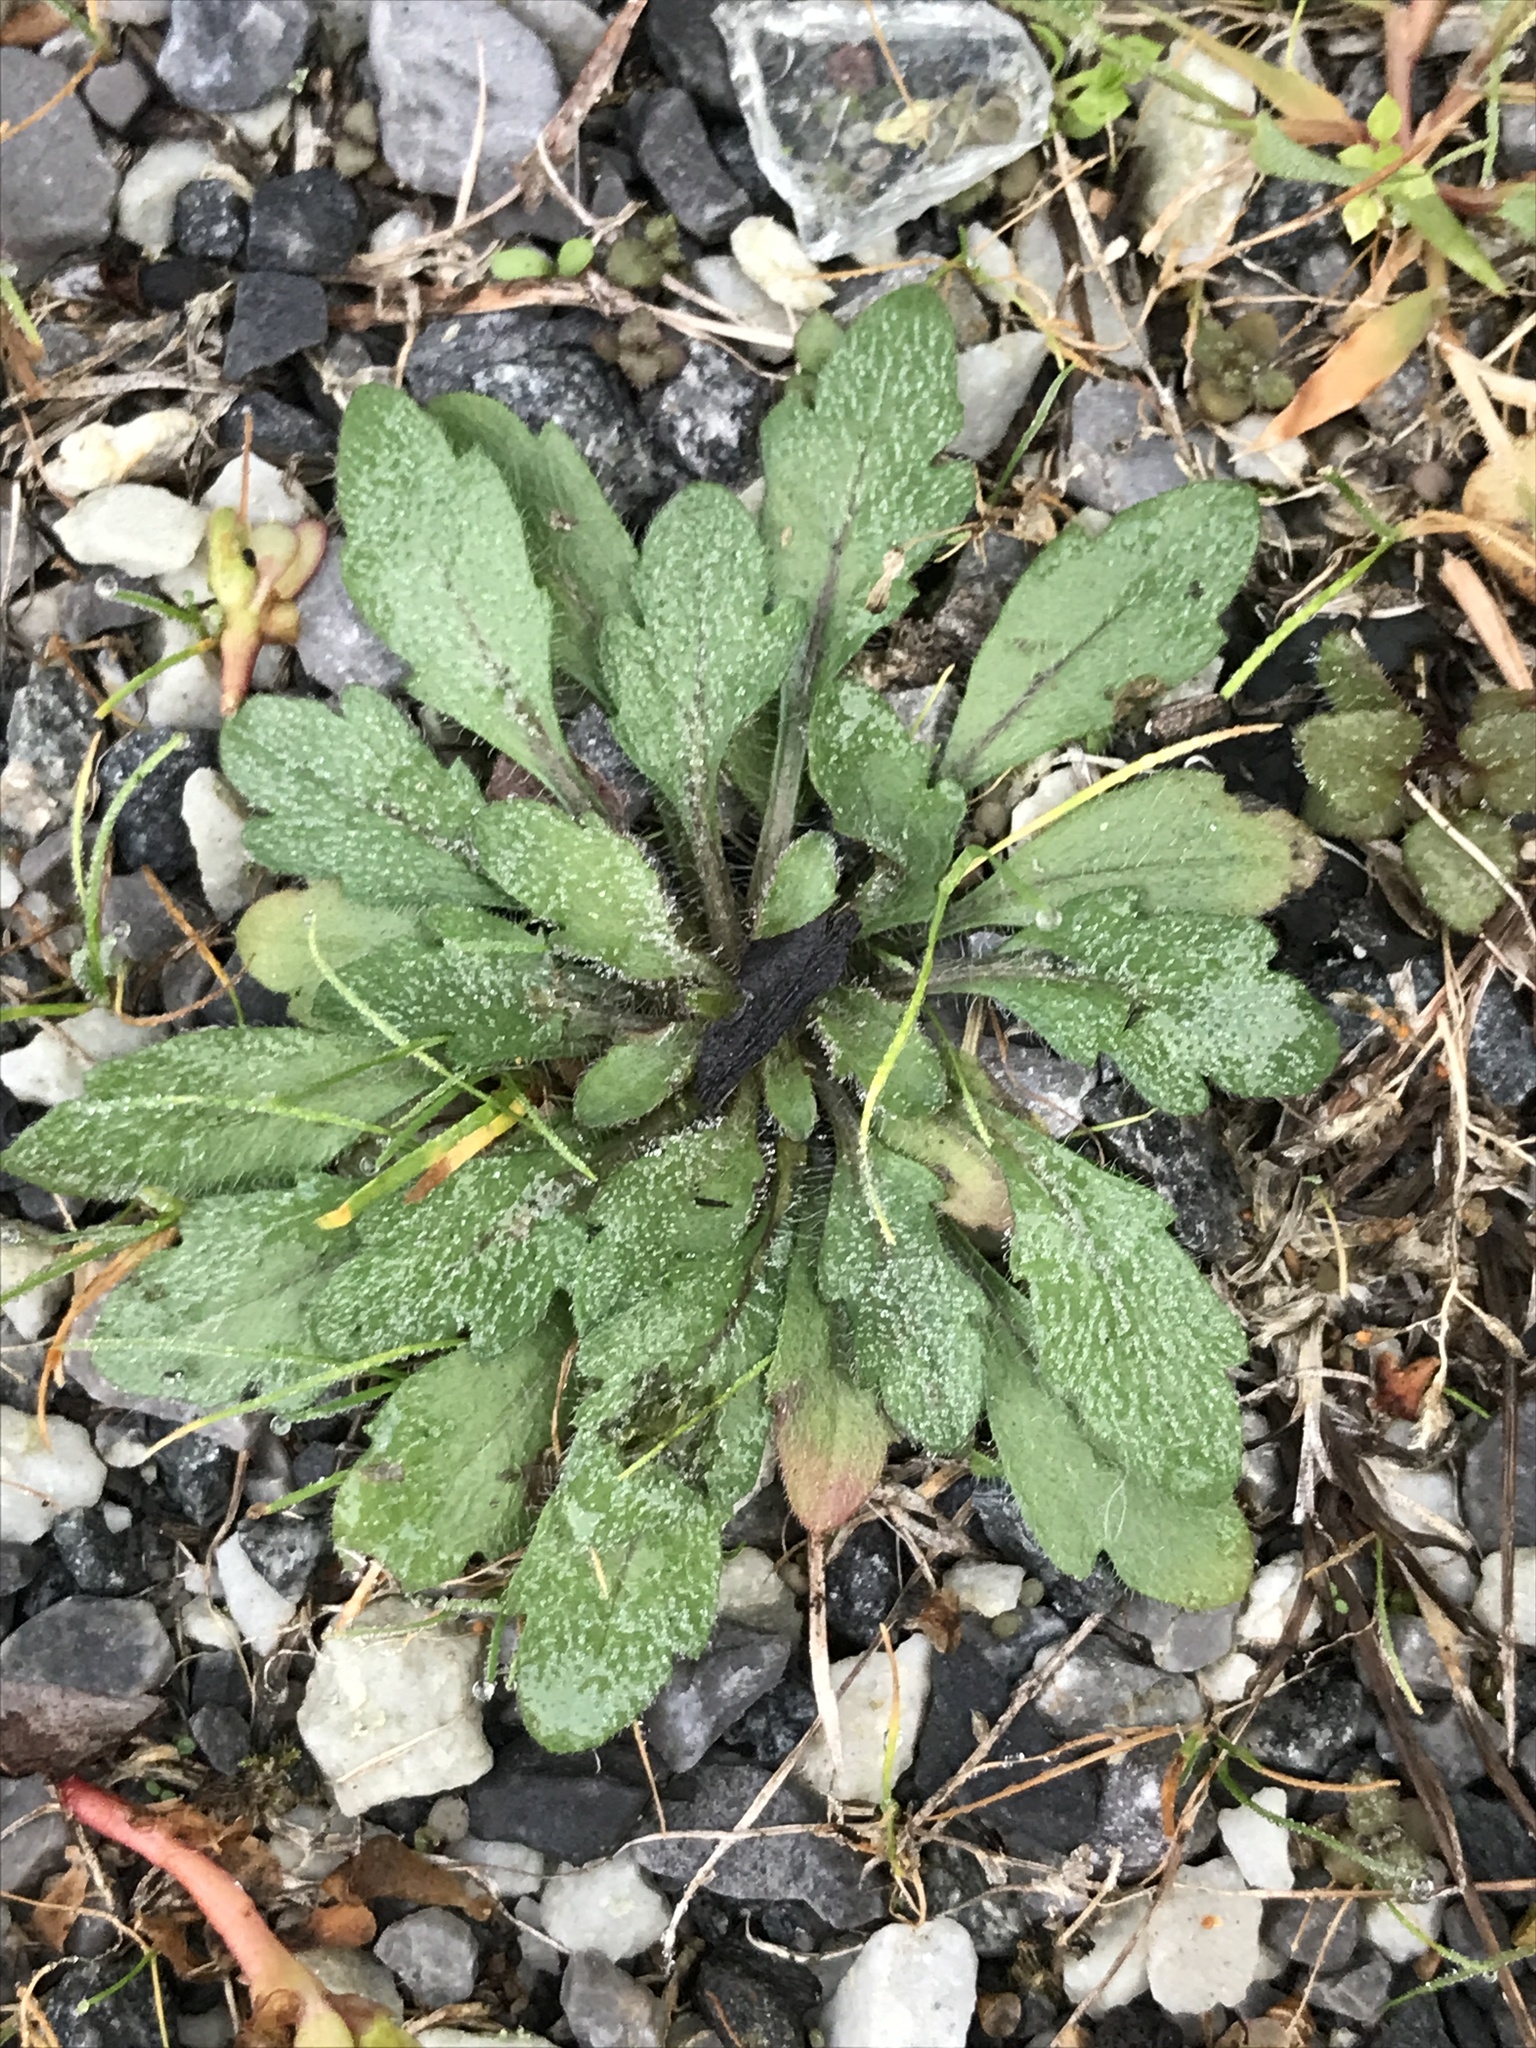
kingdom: Plantae
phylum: Tracheophyta
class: Magnoliopsida
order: Asterales
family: Asteraceae
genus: Erigeron
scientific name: Erigeron canadensis
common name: Canadian fleabane
